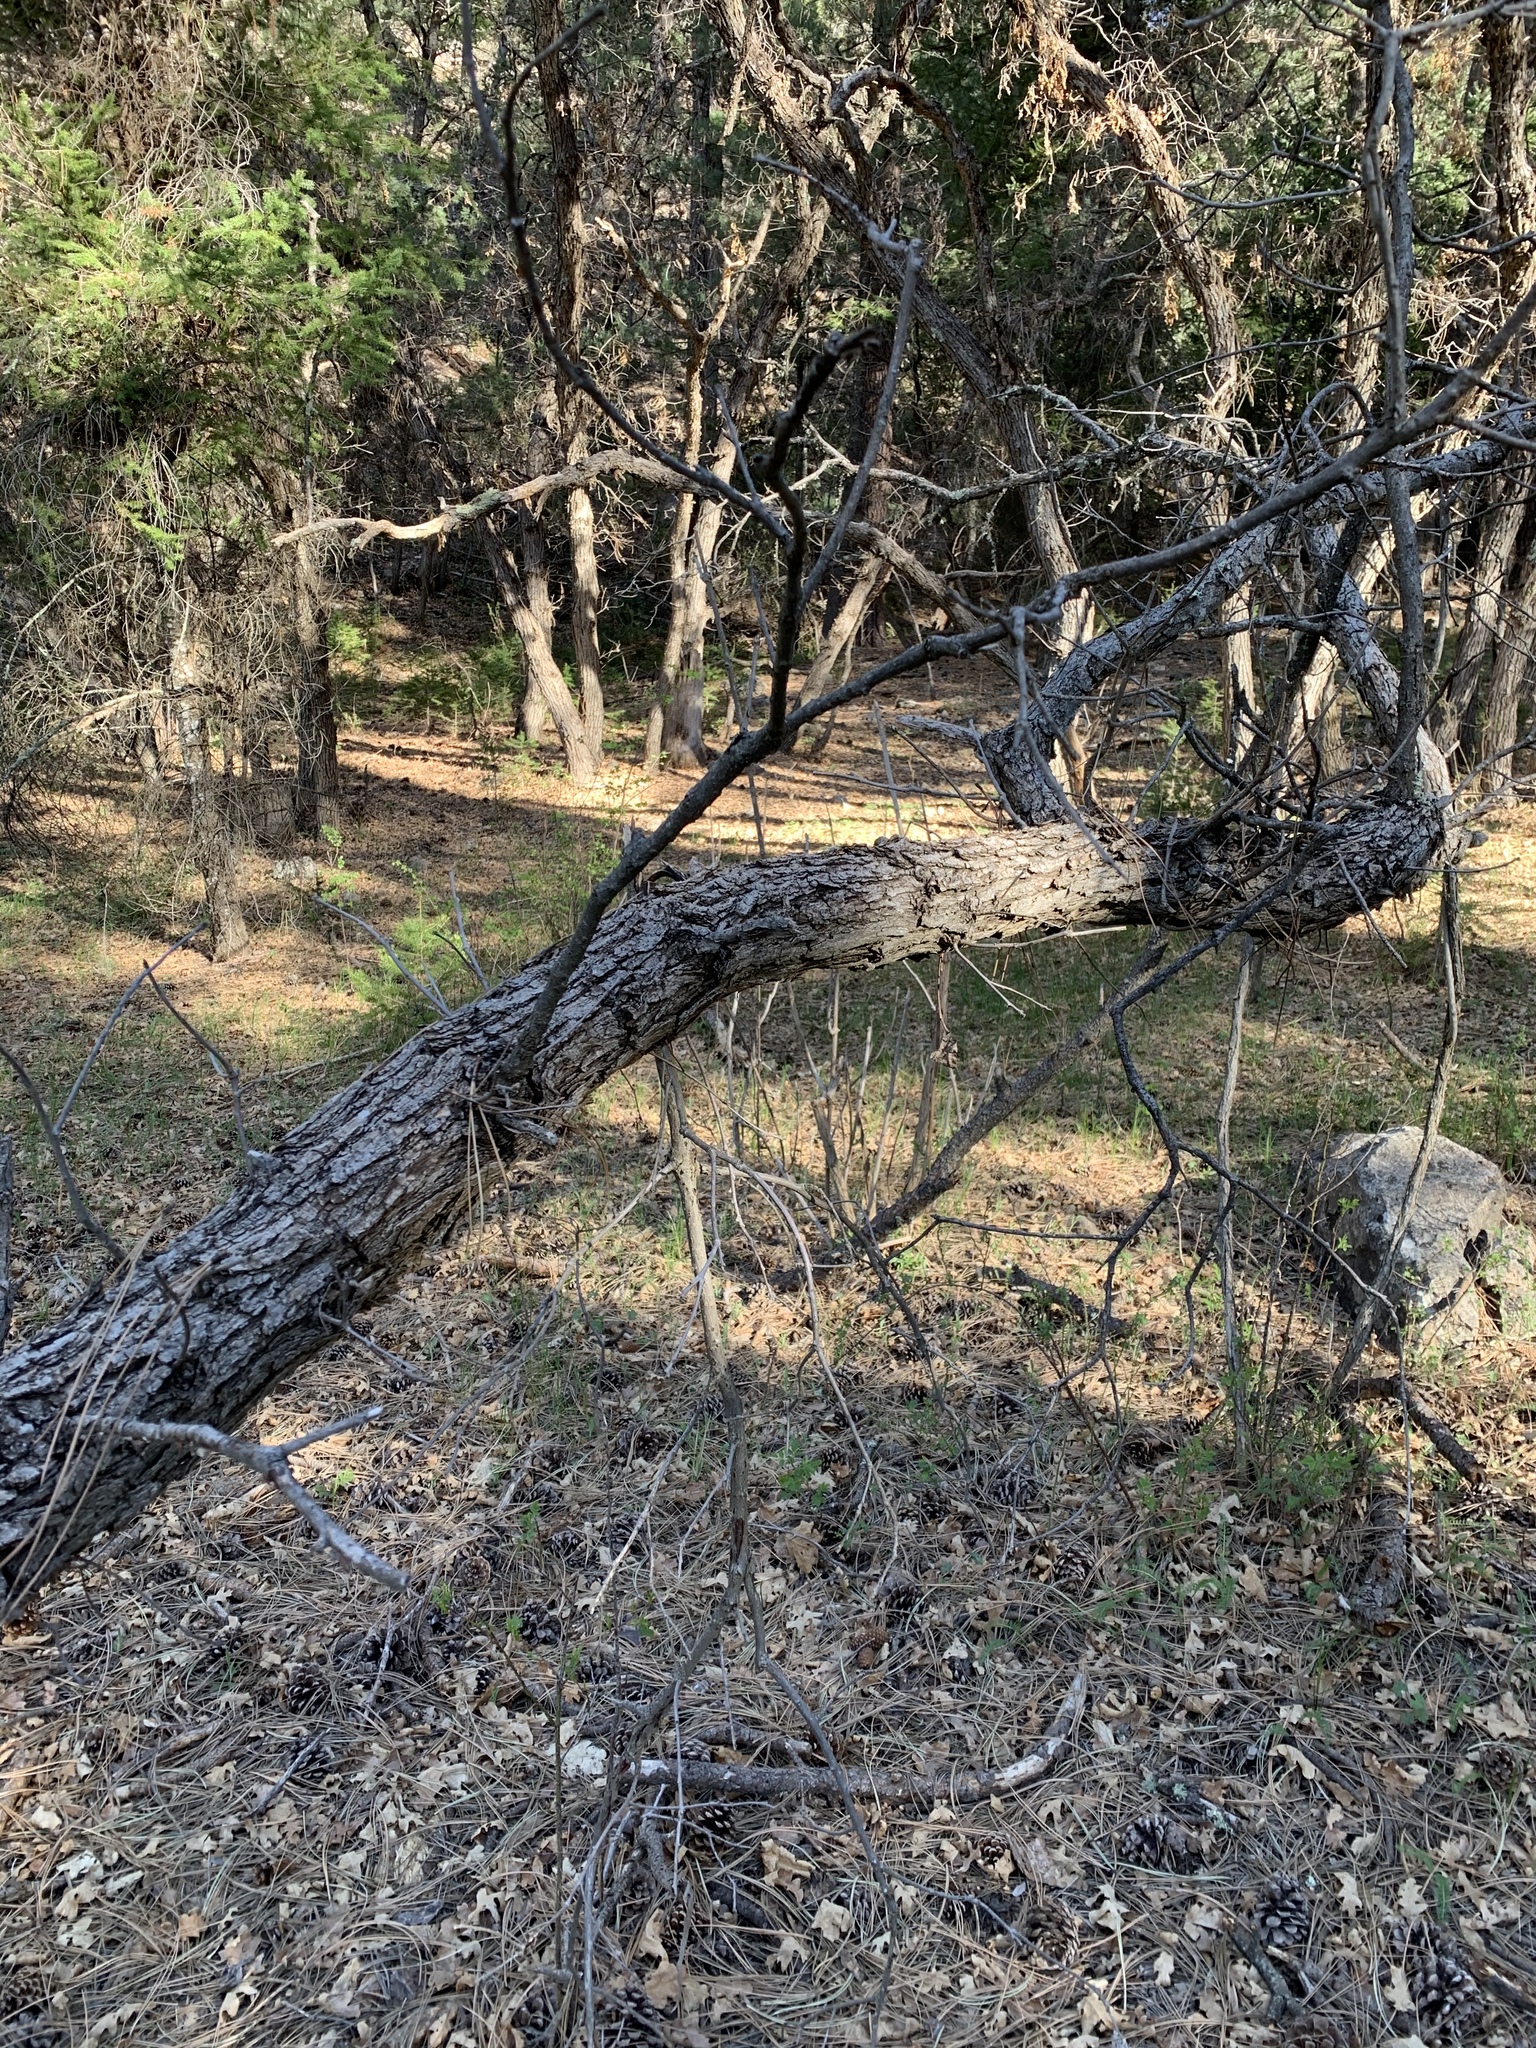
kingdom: Plantae
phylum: Tracheophyta
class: Magnoliopsida
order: Fagales
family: Fagaceae
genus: Quercus
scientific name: Quercus gambelii
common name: Gambel oak
